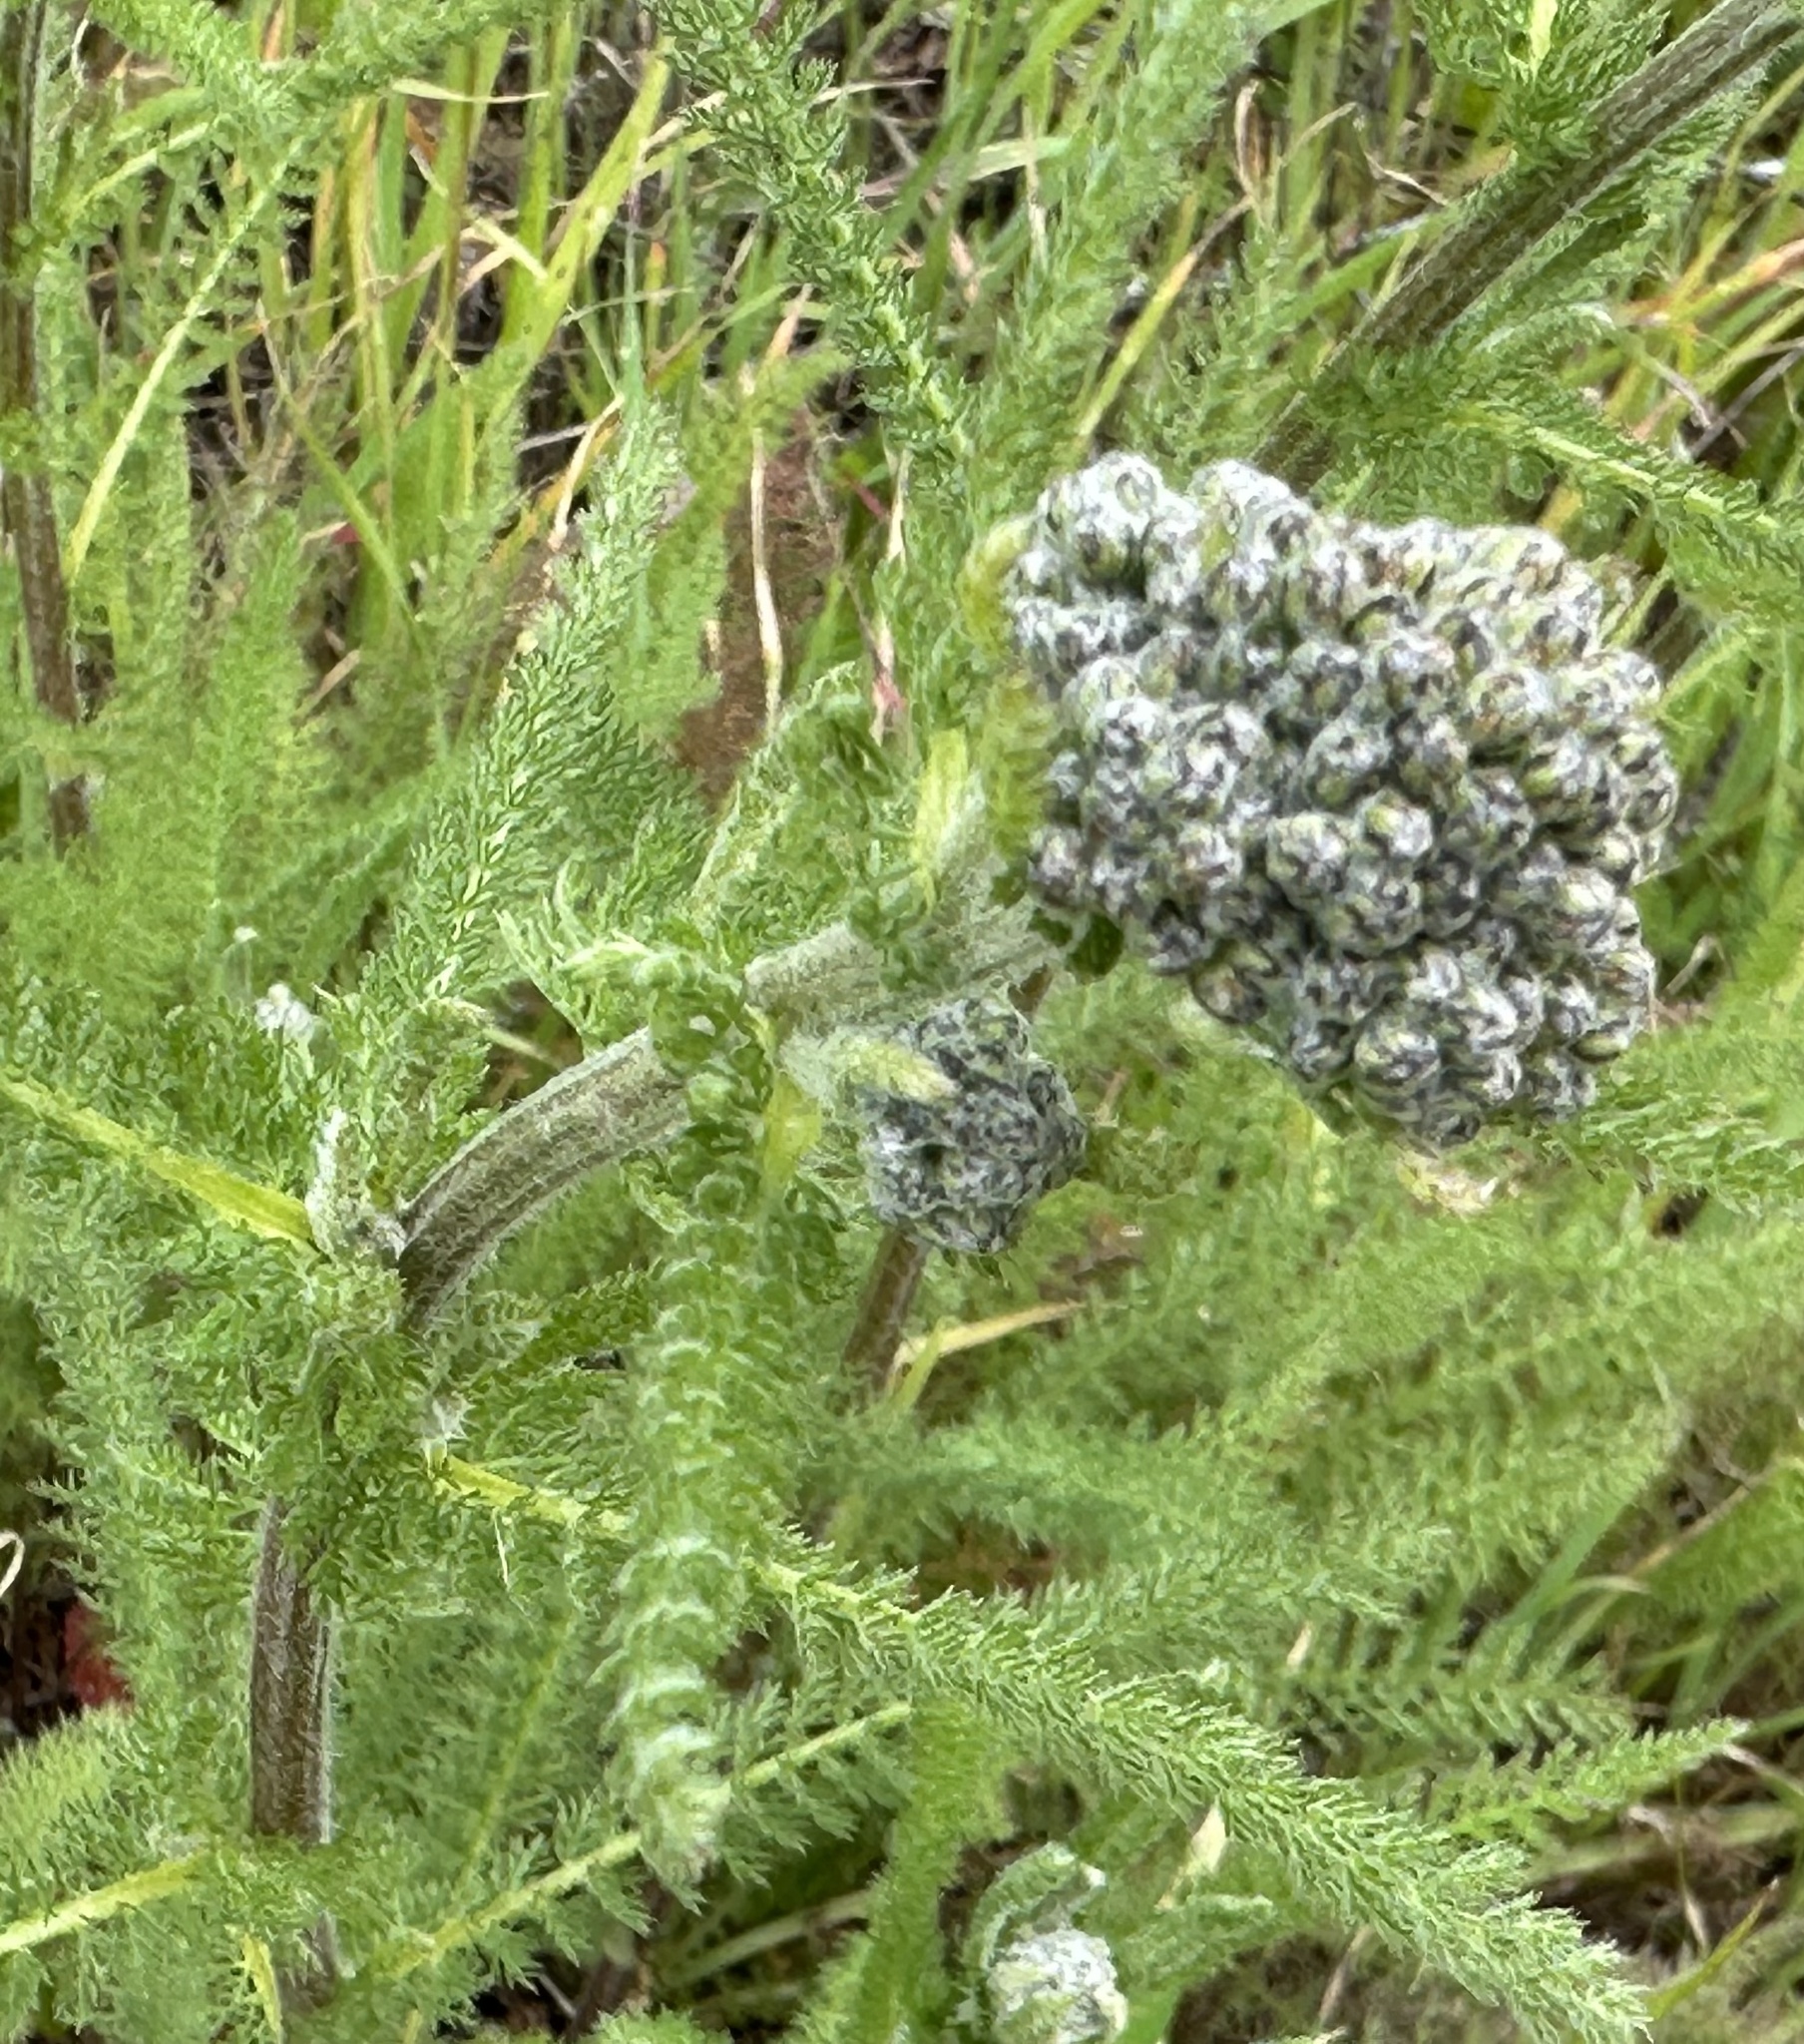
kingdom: Plantae
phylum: Tracheophyta
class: Magnoliopsida
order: Asterales
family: Asteraceae
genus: Achillea
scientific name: Achillea millefolium
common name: Yarrow
